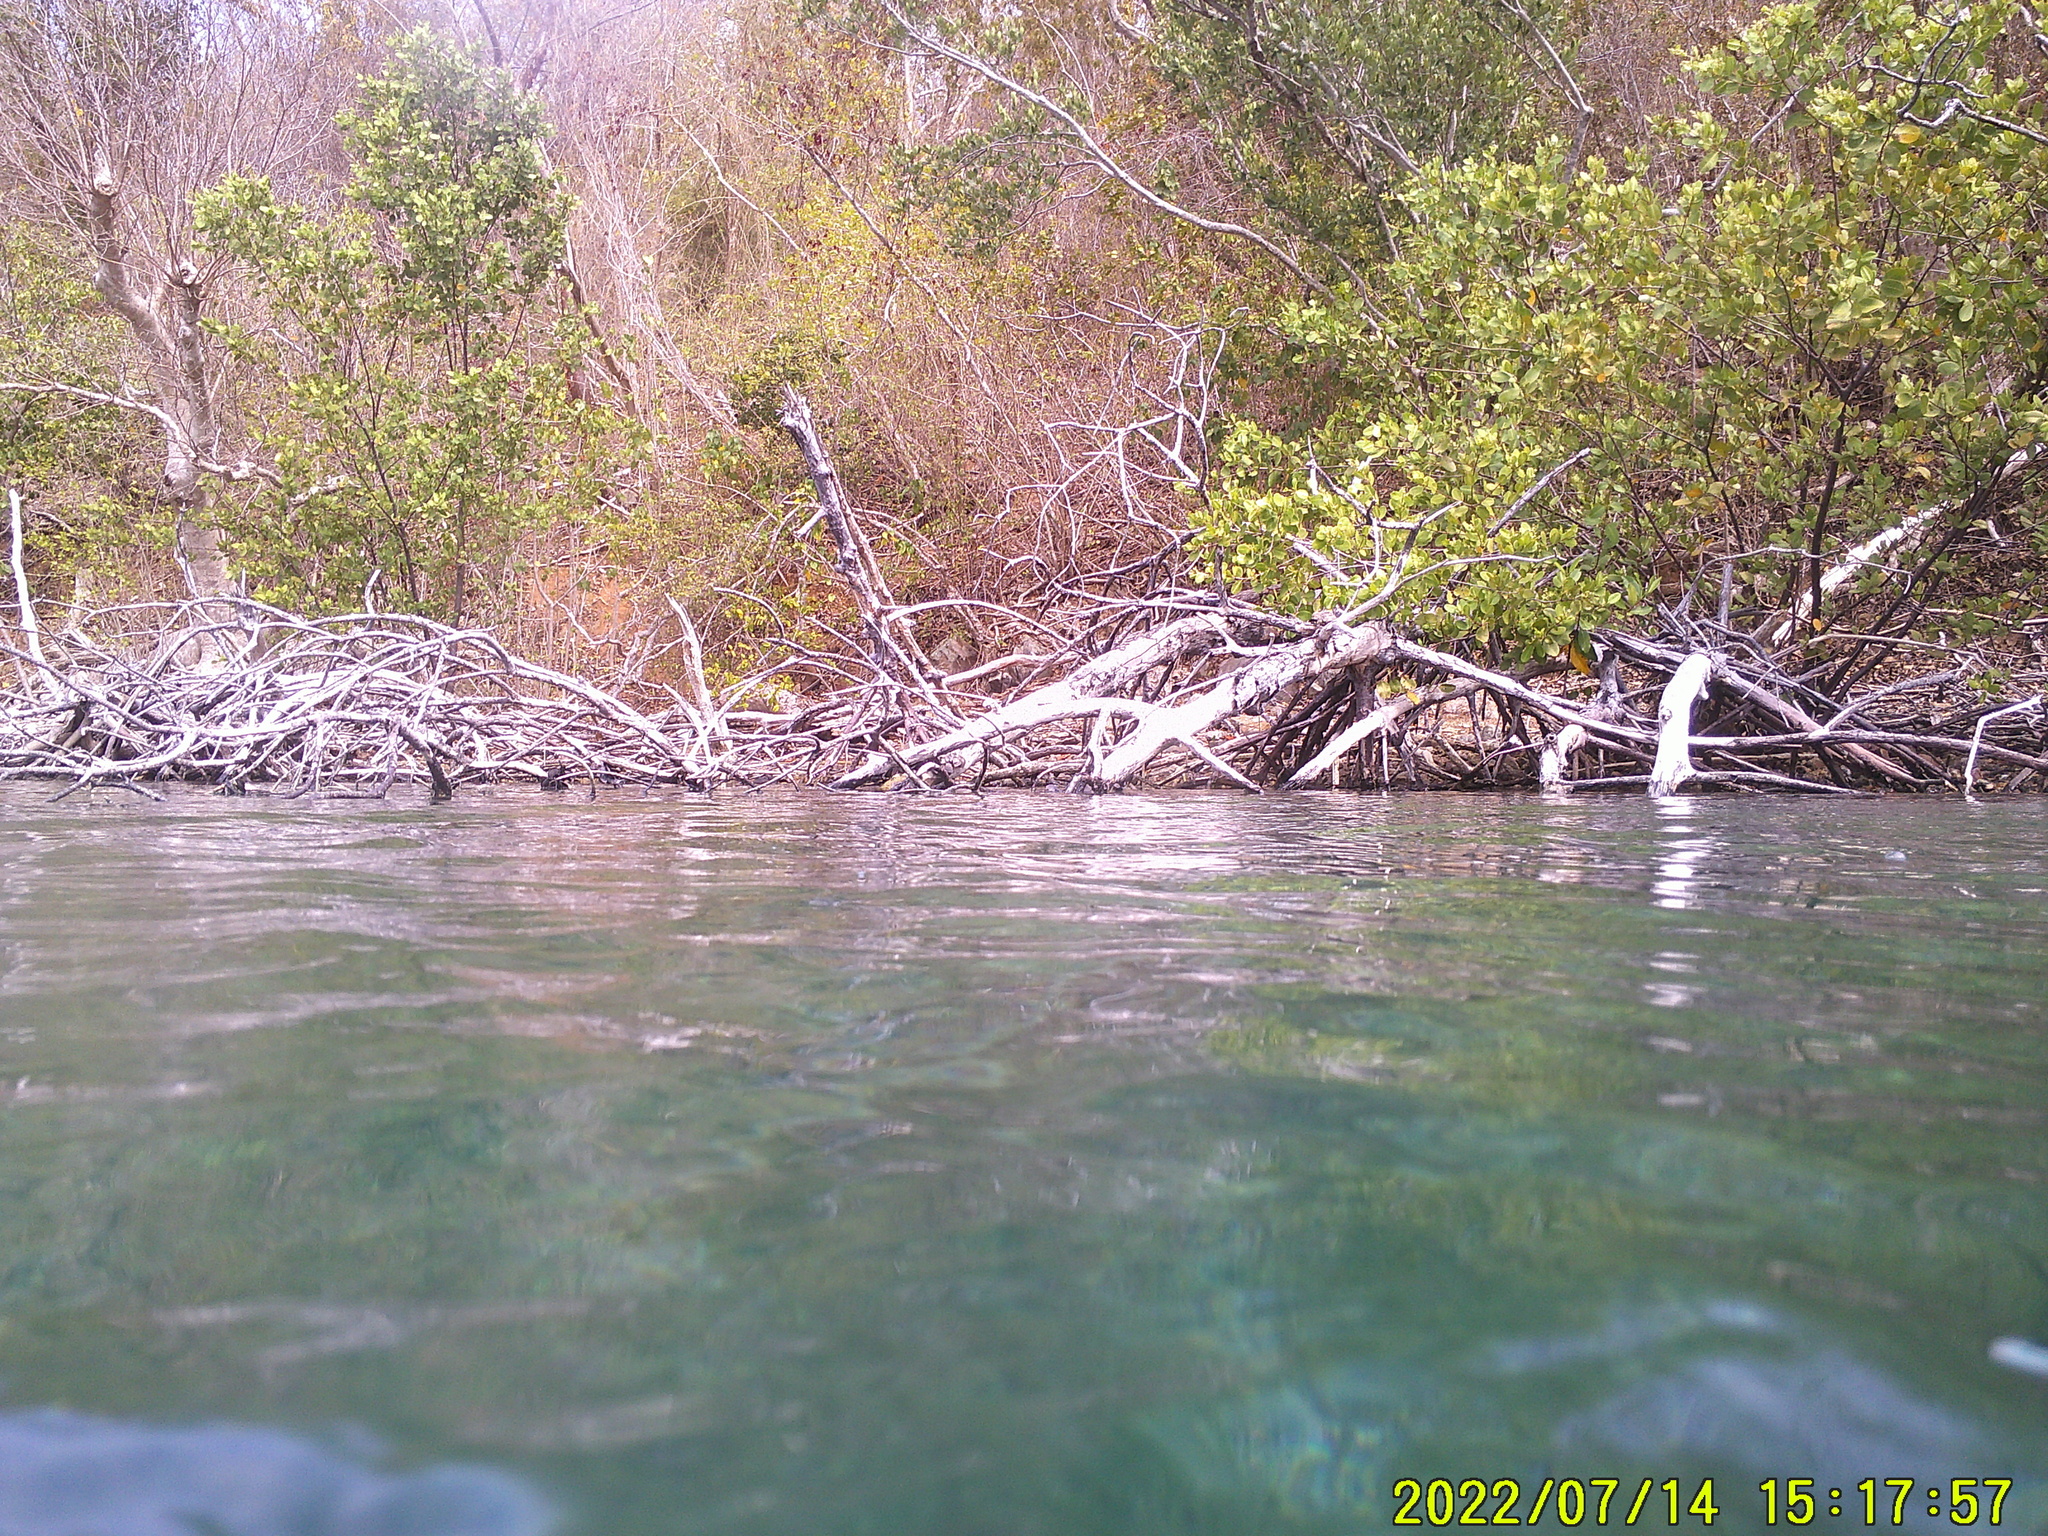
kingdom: Plantae
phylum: Tracheophyta
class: Magnoliopsida
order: Malpighiales
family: Rhizophoraceae
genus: Rhizophora
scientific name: Rhizophora mangle
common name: Red mangrove
